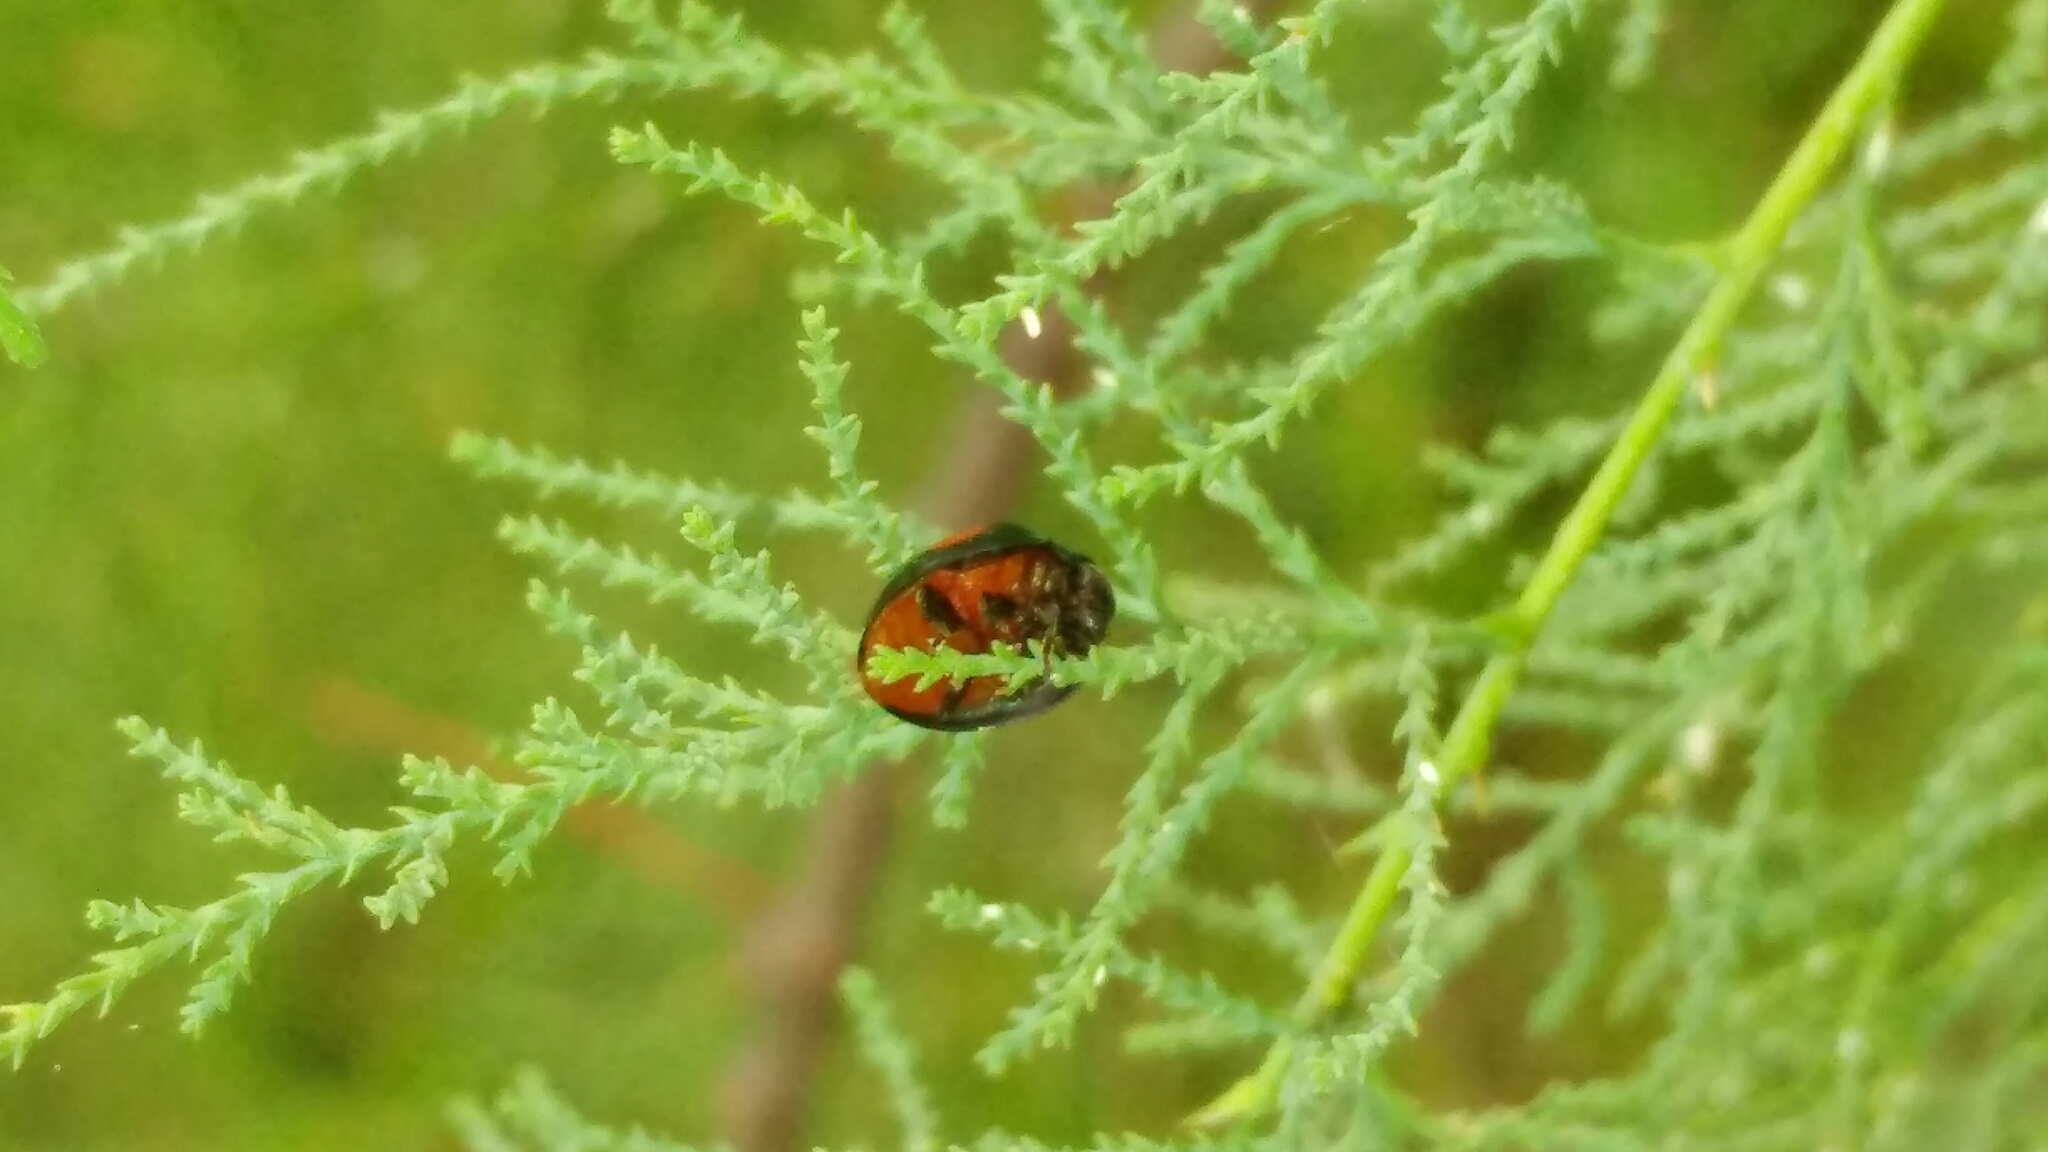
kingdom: Animalia
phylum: Arthropoda
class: Insecta
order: Coleoptera
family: Coccinellidae
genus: Chilocorus
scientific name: Chilocorus cacti
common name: Cactus lady beetle
